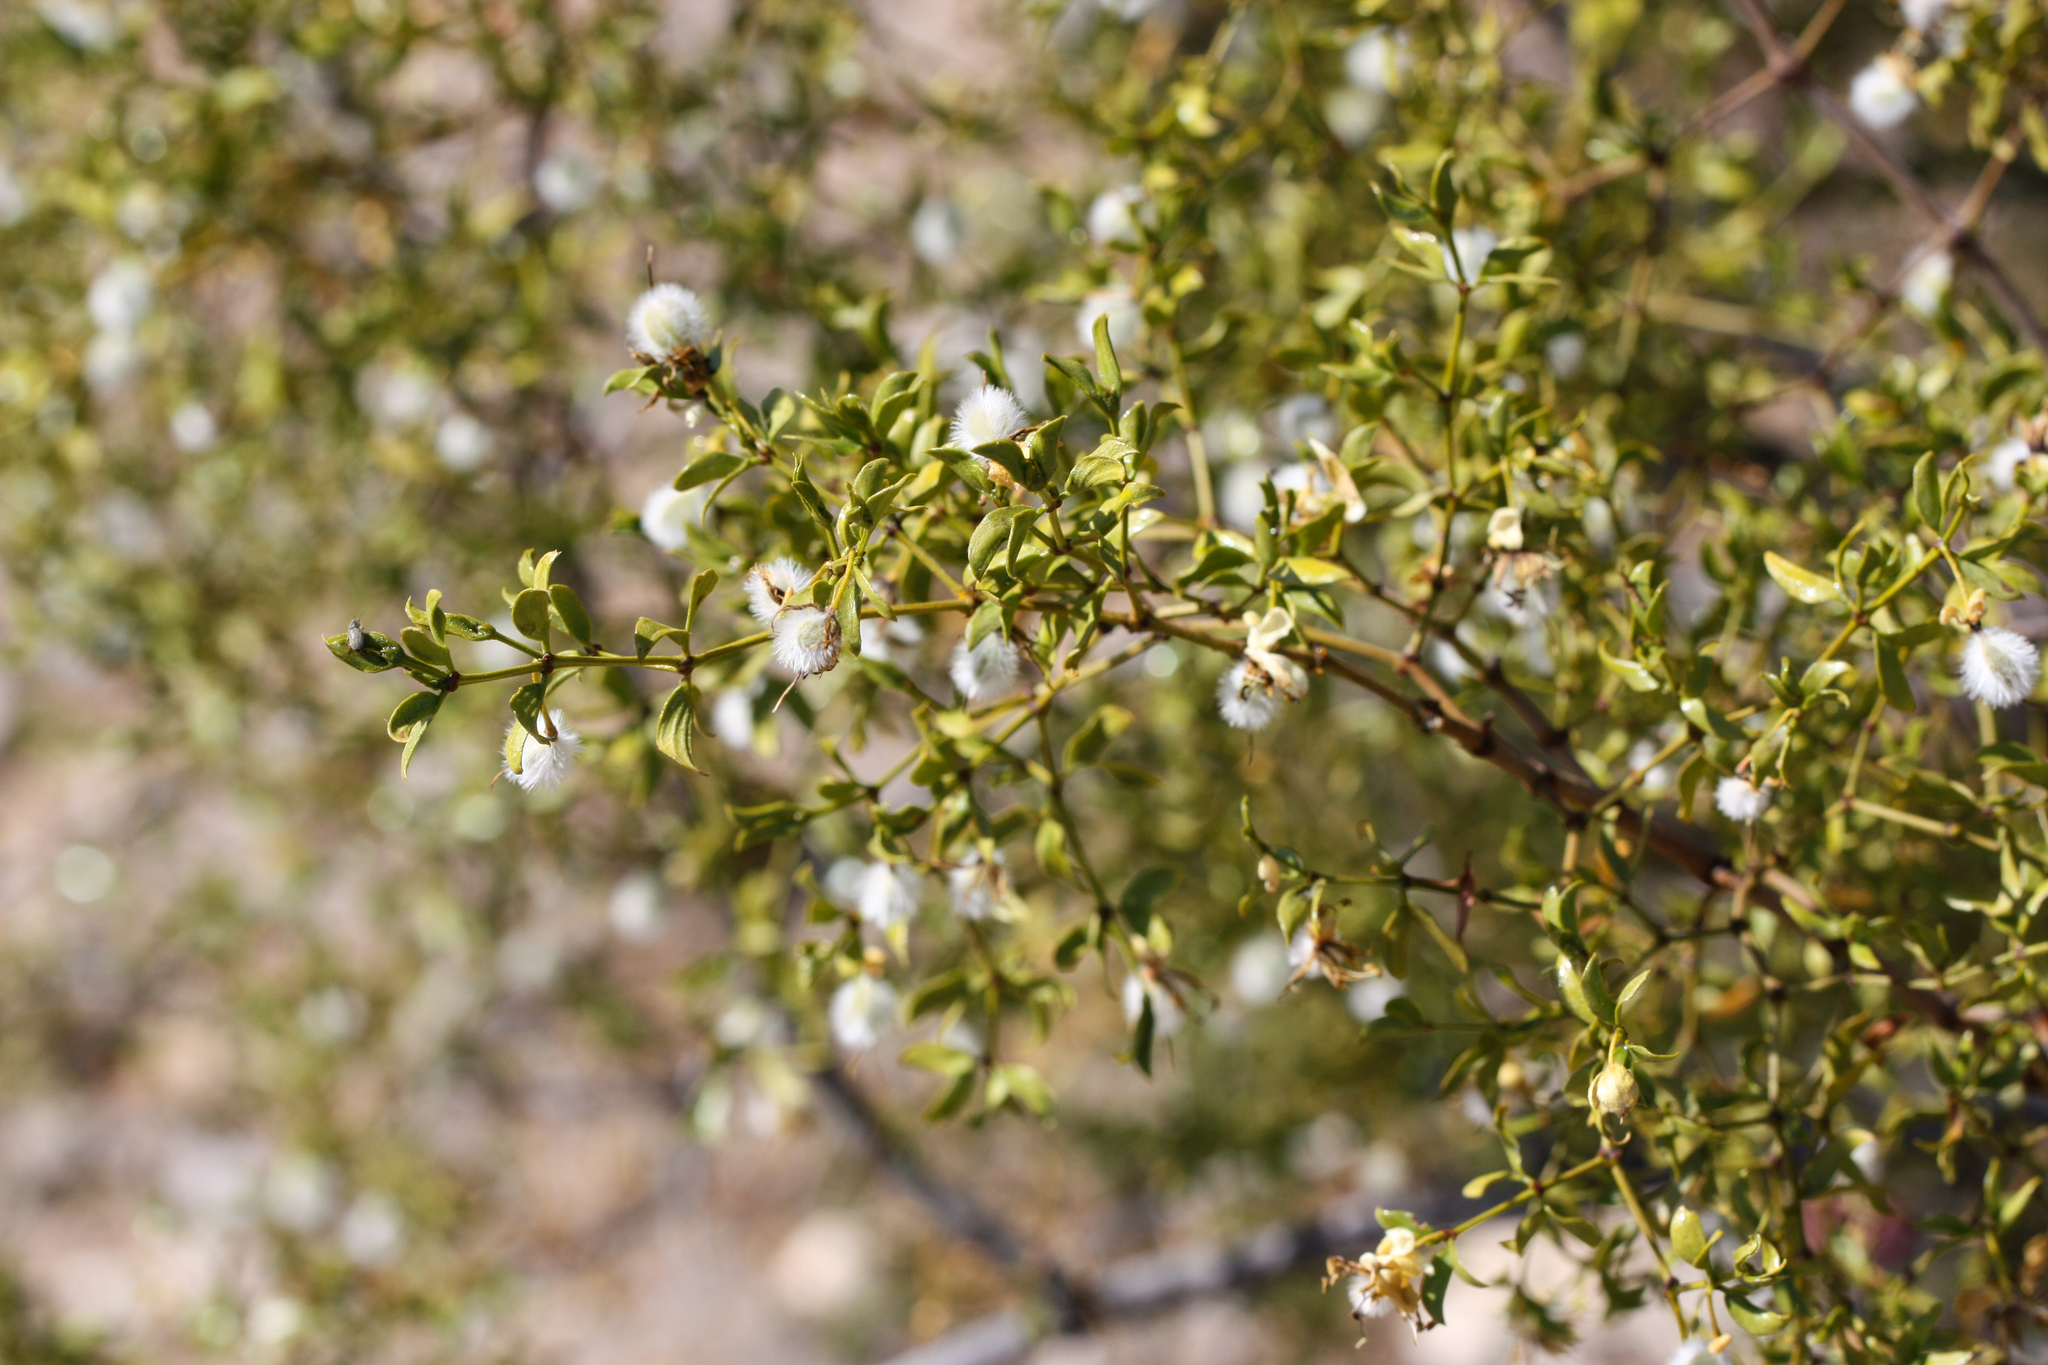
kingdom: Plantae
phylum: Tracheophyta
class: Magnoliopsida
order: Zygophyllales
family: Zygophyllaceae
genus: Larrea
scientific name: Larrea tridentata
